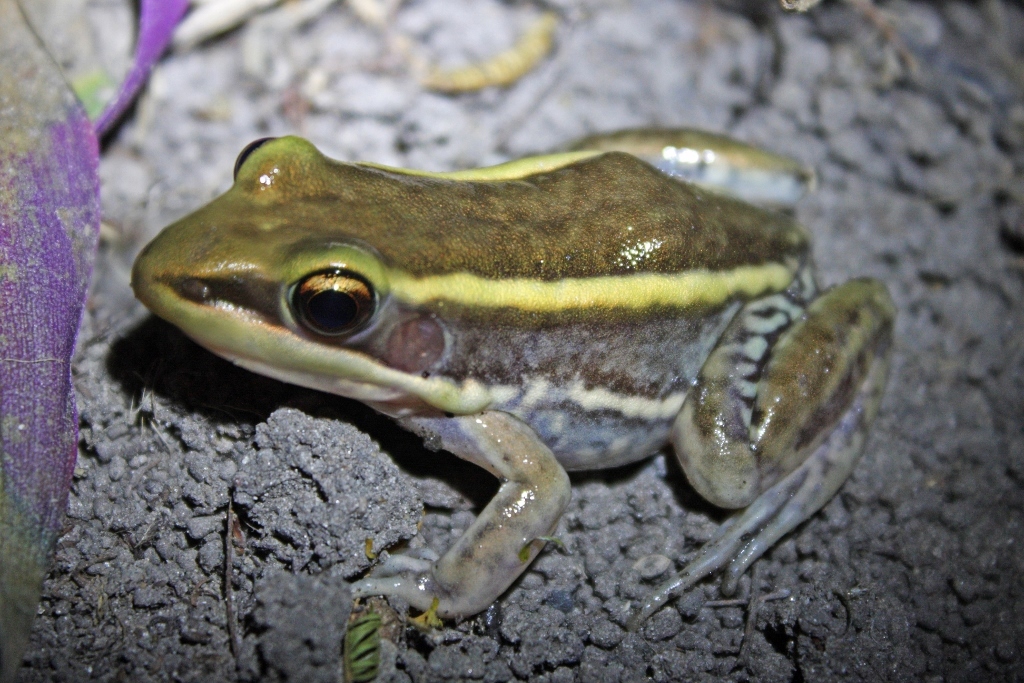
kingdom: Animalia
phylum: Chordata
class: Amphibia
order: Anura
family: Ranidae
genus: Amnirana
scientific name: Amnirana galamensis
